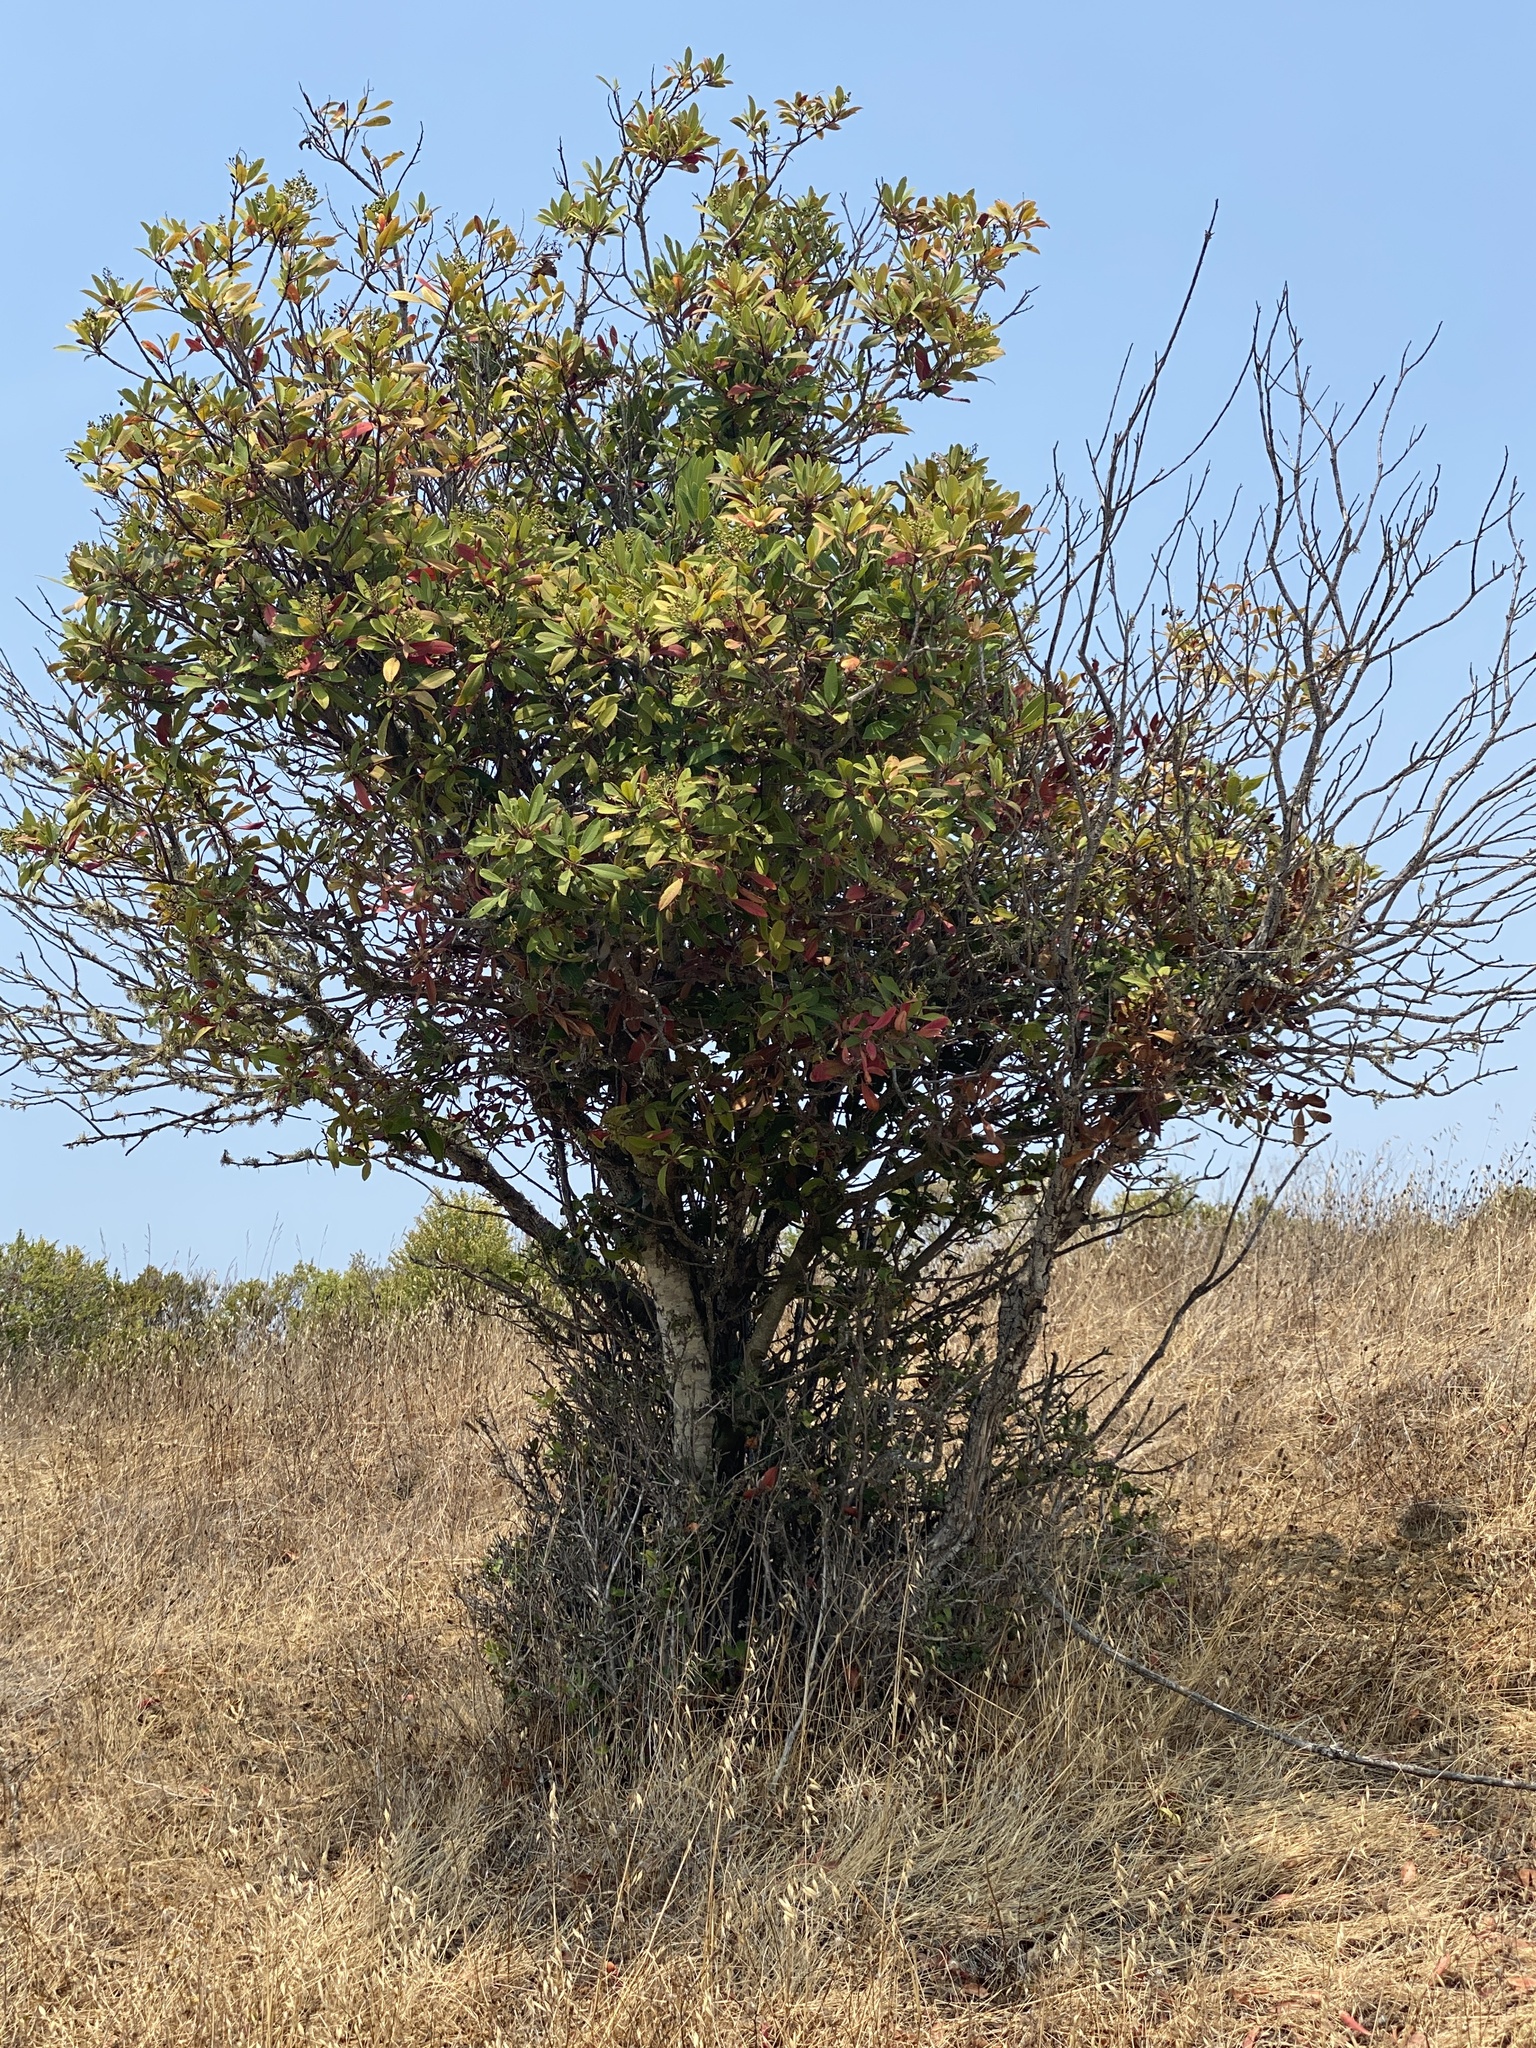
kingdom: Plantae
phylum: Tracheophyta
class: Magnoliopsida
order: Rosales
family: Rosaceae
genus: Heteromeles
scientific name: Heteromeles arbutifolia
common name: California-holly
